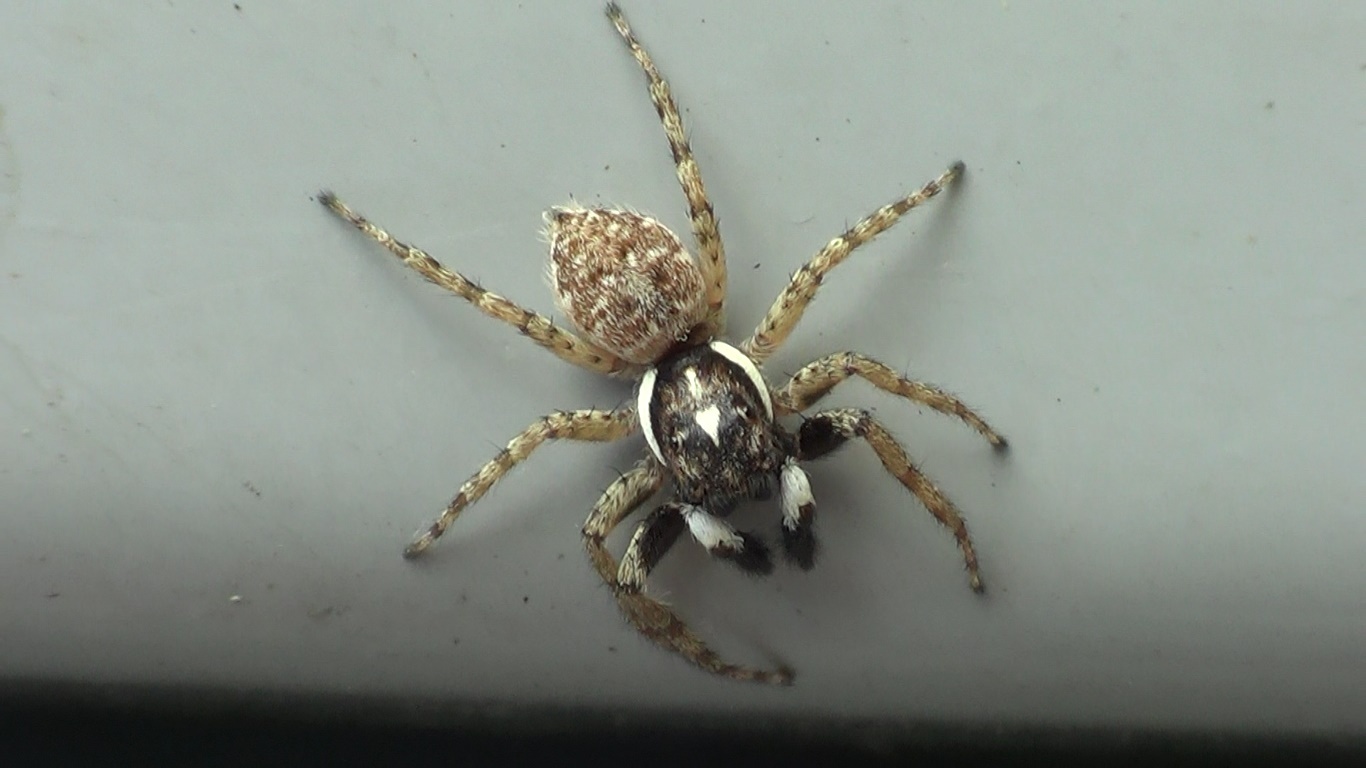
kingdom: Animalia
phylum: Arthropoda
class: Arachnida
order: Araneae
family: Salticidae
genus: Menemerus
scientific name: Menemerus semilimbatus
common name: Jumping spider
